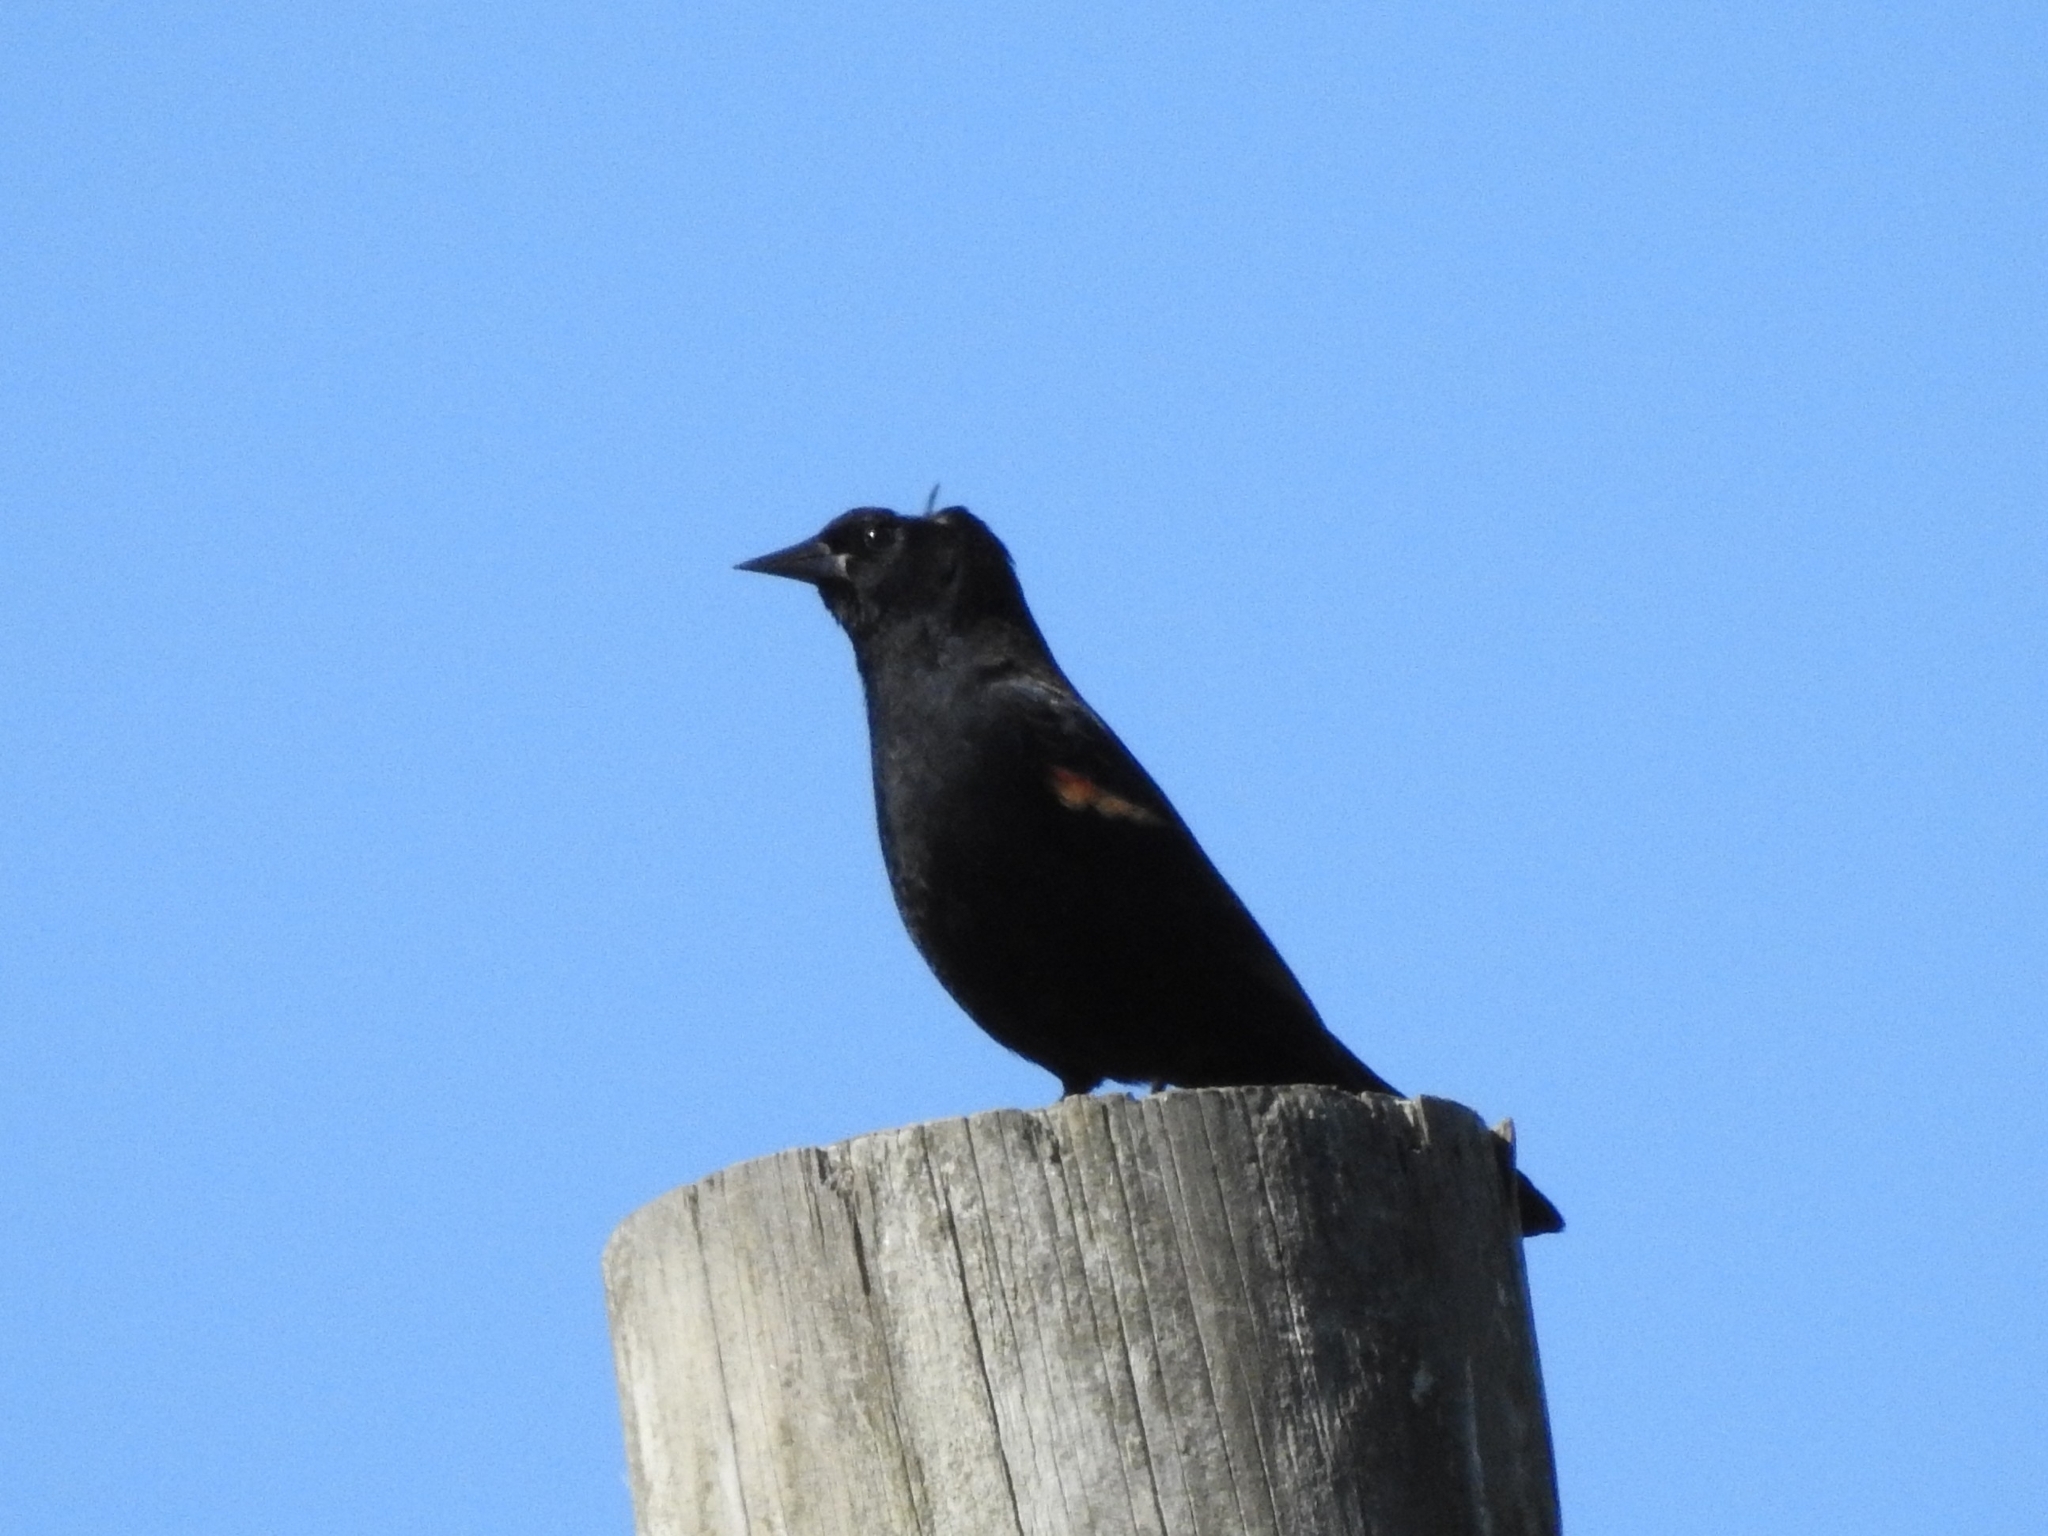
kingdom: Animalia
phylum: Chordata
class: Aves
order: Passeriformes
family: Icteridae
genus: Agelaius
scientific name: Agelaius phoeniceus
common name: Red-winged blackbird
